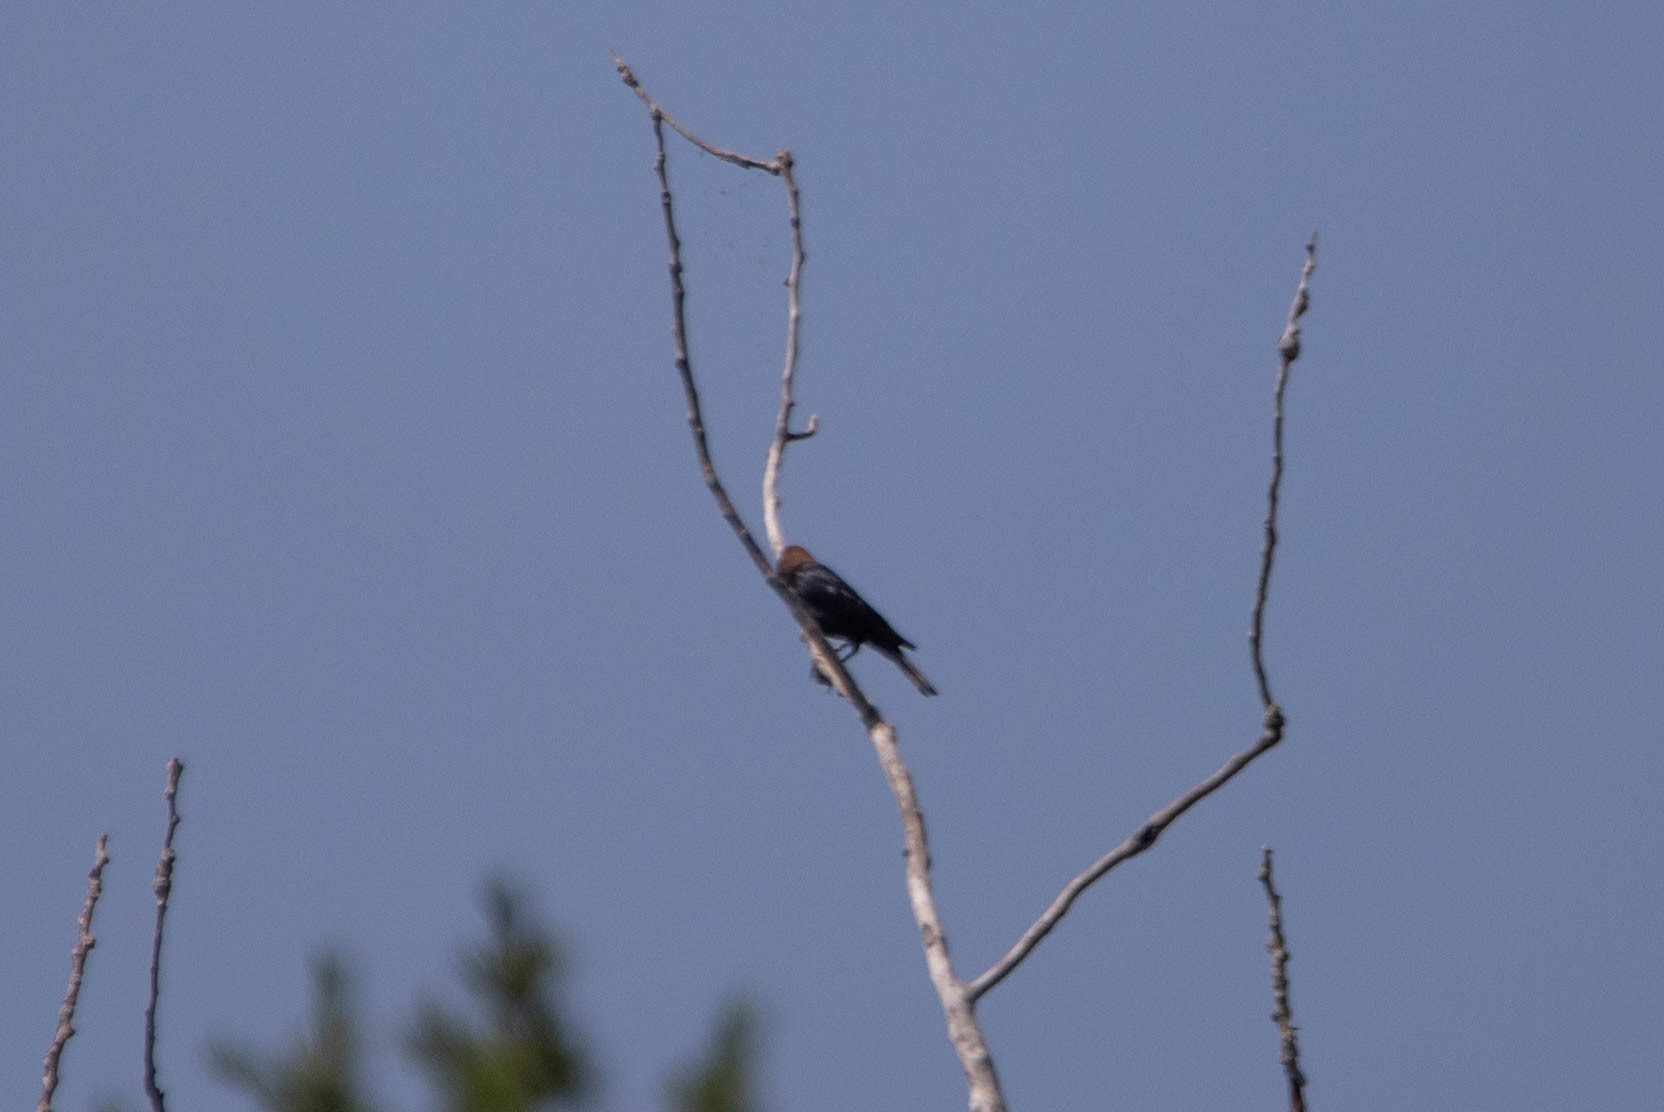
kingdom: Animalia
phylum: Chordata
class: Aves
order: Passeriformes
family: Icteridae
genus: Molothrus
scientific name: Molothrus ater
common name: Brown-headed cowbird
